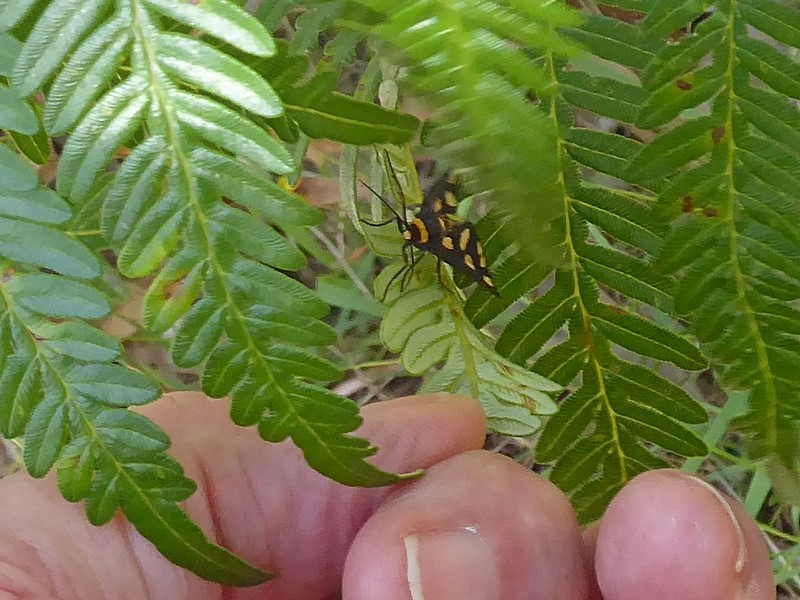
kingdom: Animalia
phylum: Arthropoda
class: Insecta
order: Lepidoptera
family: Erebidae
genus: Amata
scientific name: Amata nigriceps
